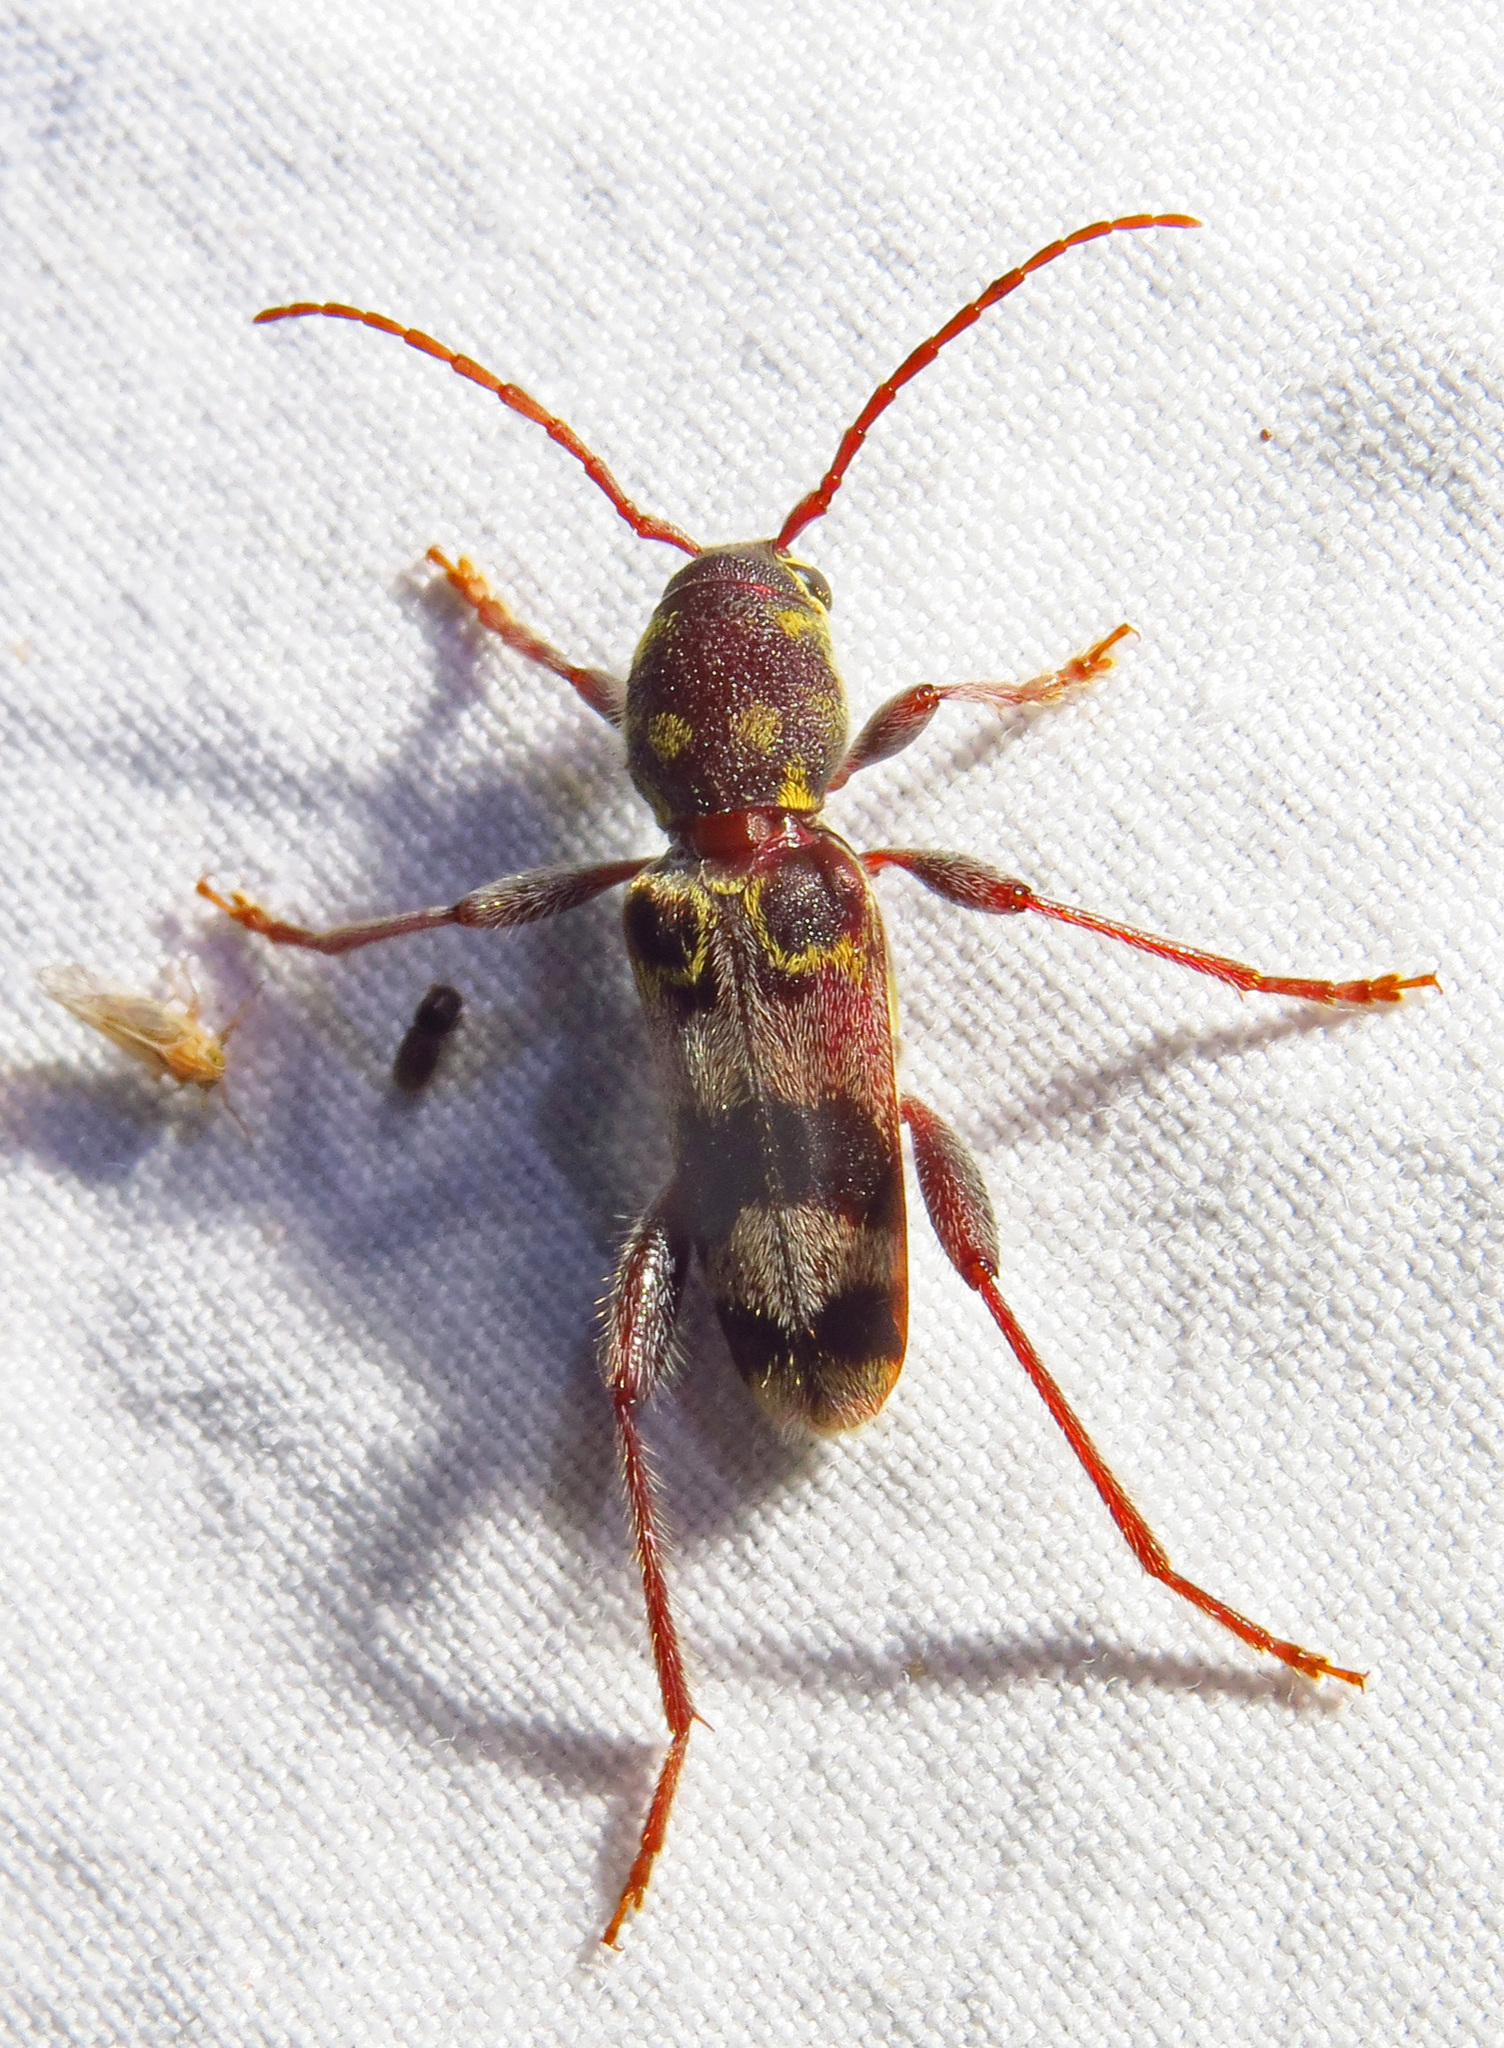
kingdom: Animalia
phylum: Arthropoda
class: Insecta
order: Coleoptera
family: Cerambycidae
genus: Xylotrechus
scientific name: Xylotrechus colonus
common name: Long-horned beetle
